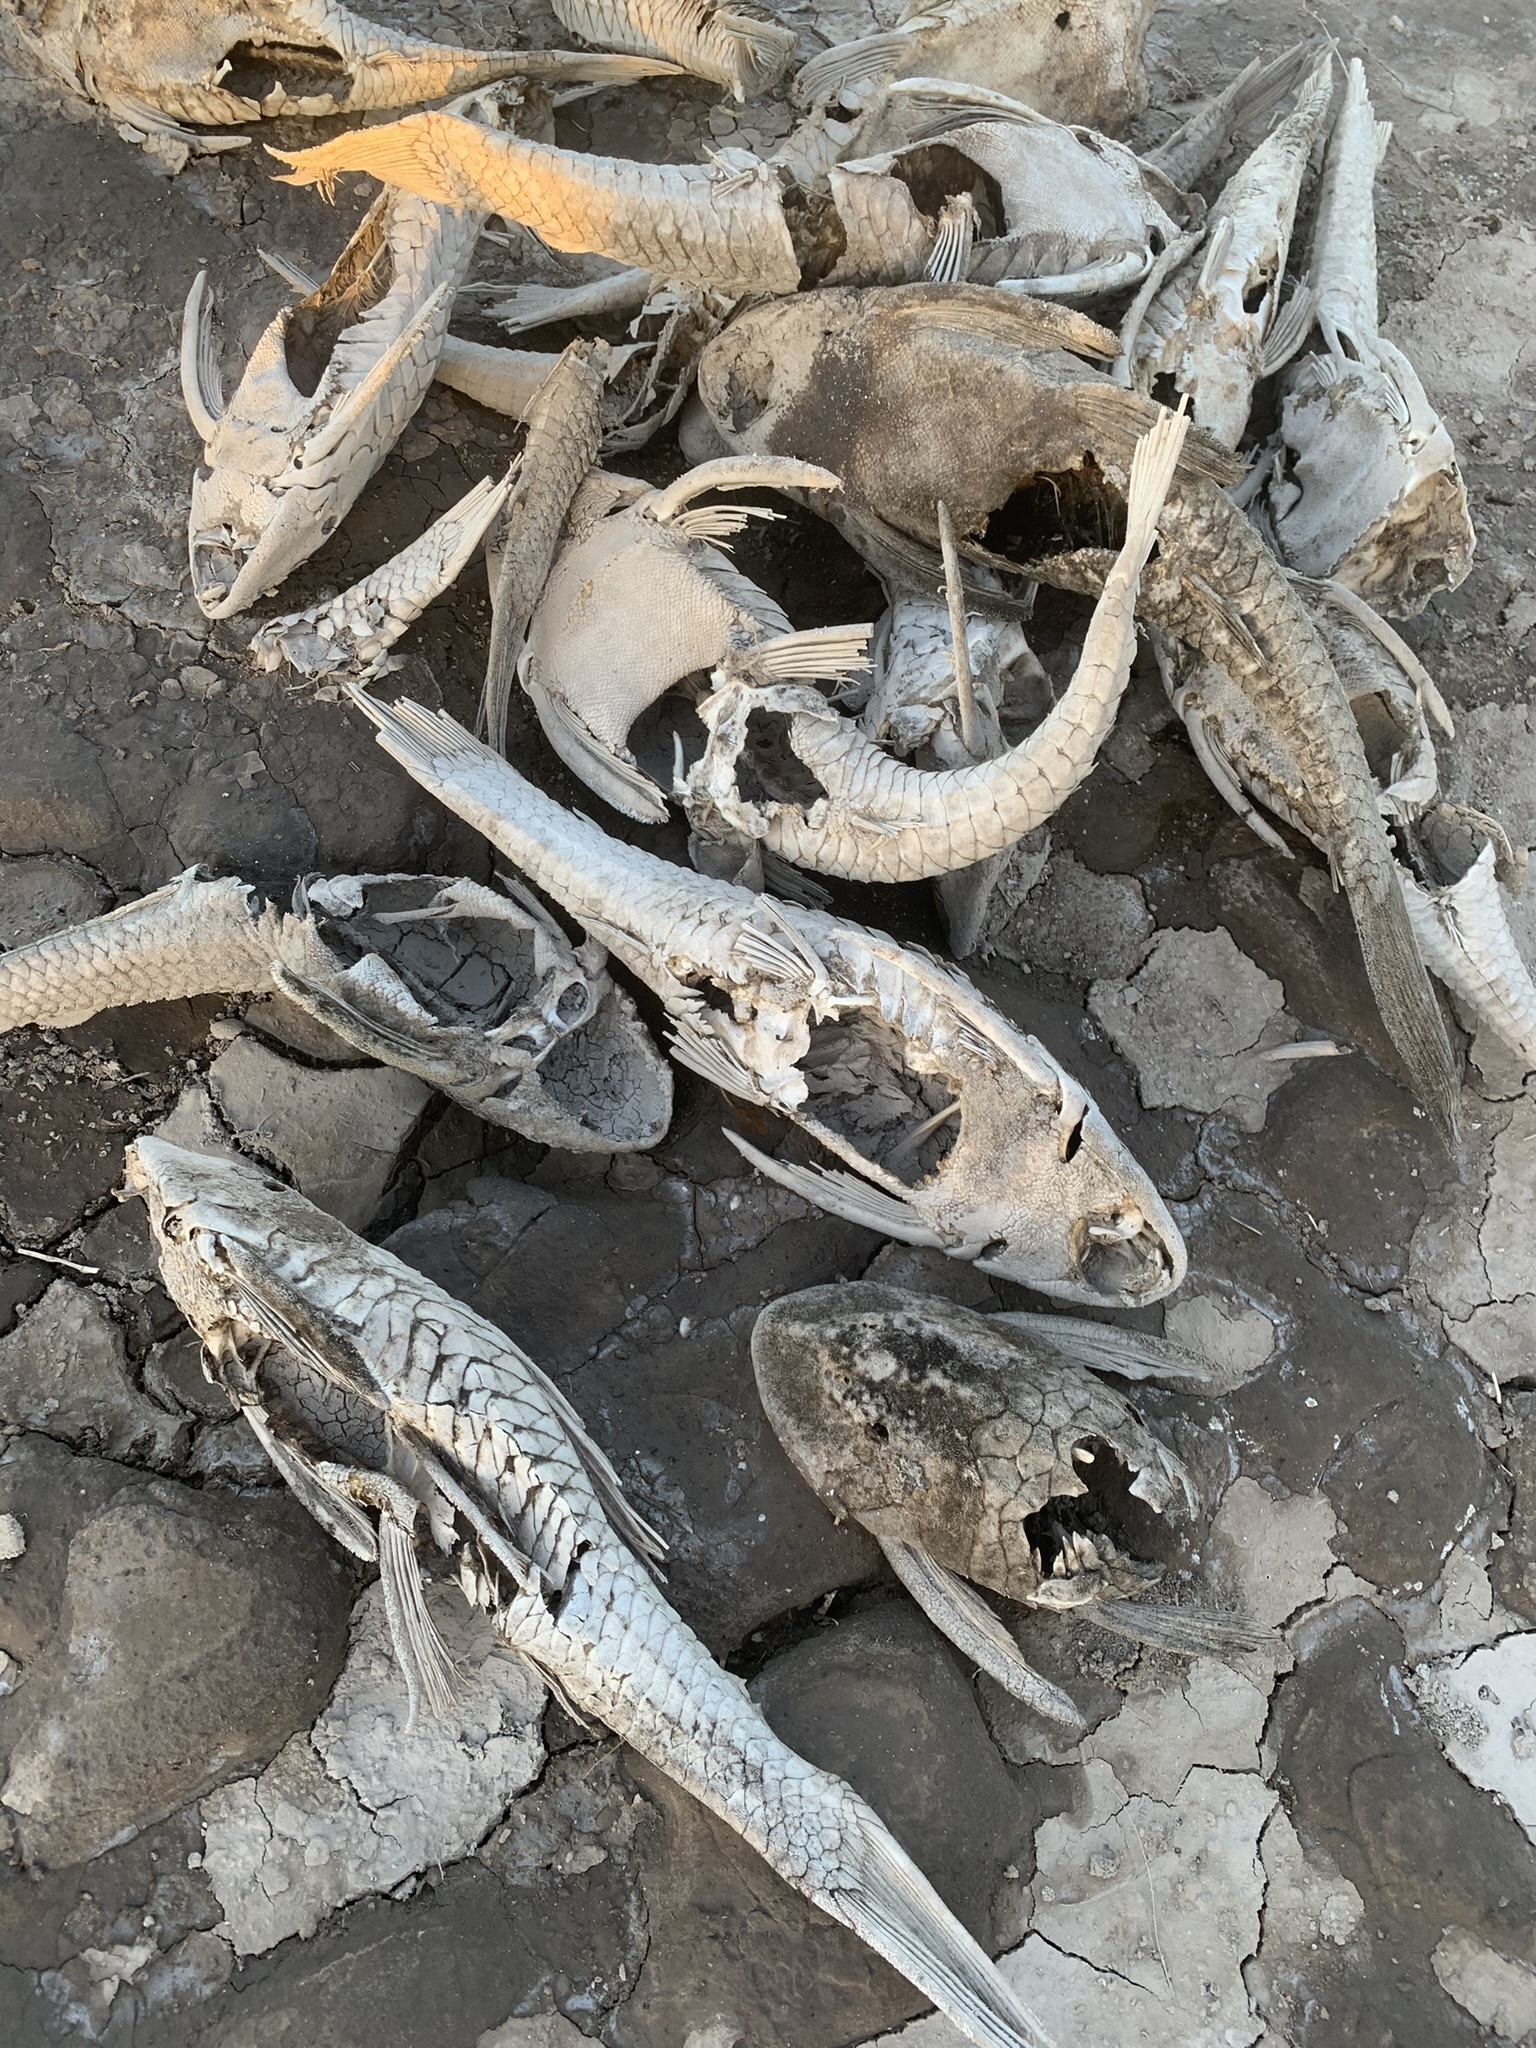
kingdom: Animalia
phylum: Chordata
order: Siluriformes
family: Loricariidae
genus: Hypostomus
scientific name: Hypostomus commersoni
